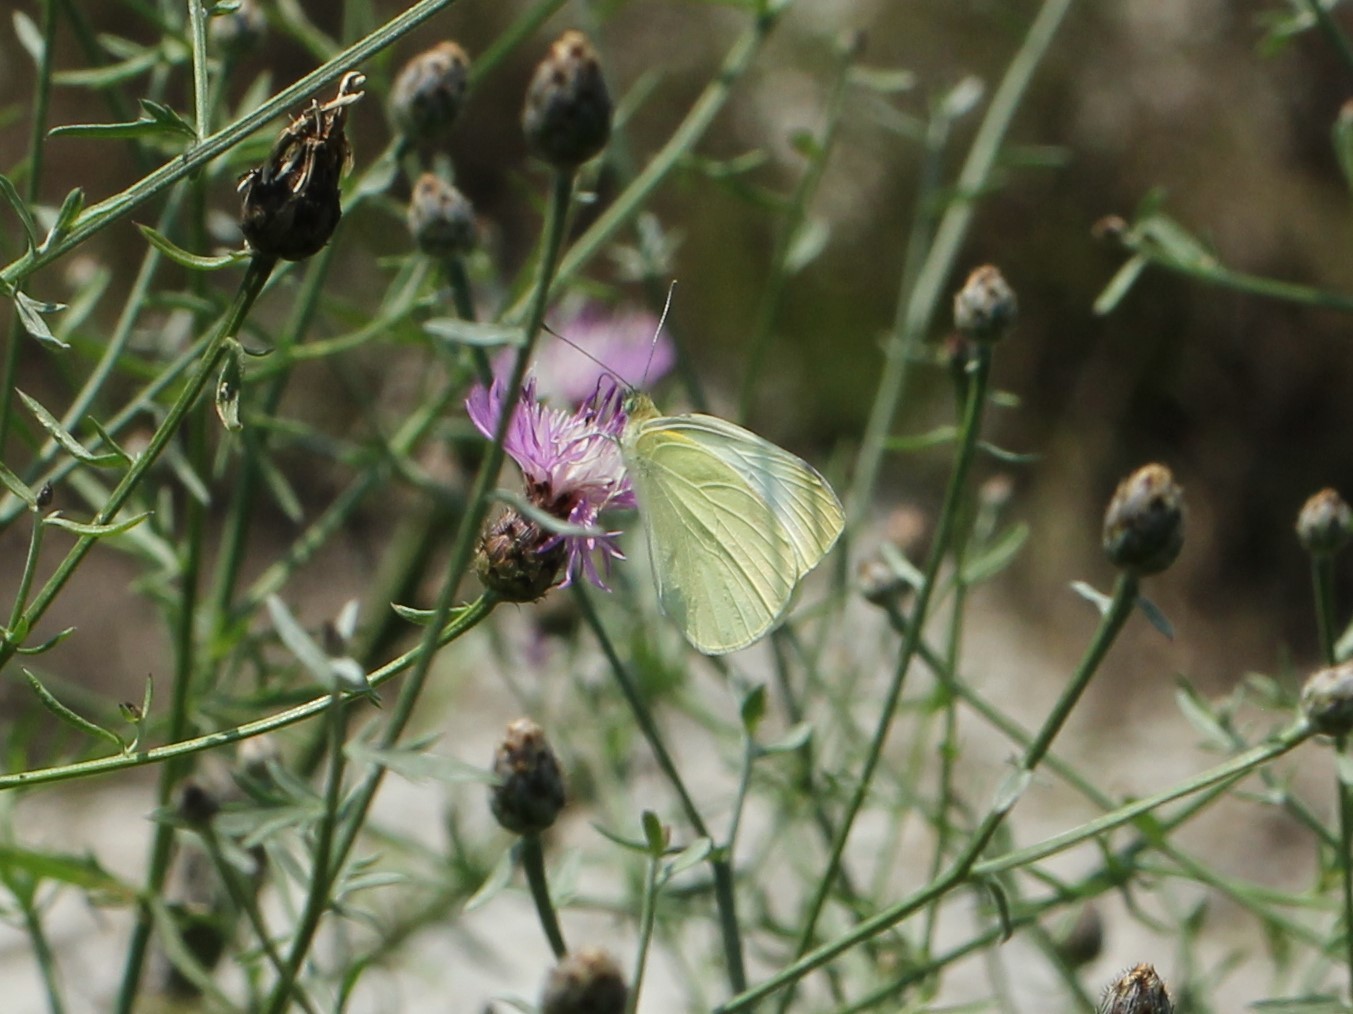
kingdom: Animalia
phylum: Arthropoda
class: Insecta
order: Lepidoptera
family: Pieridae
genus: Pieris
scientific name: Pieris rapae
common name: Small white
